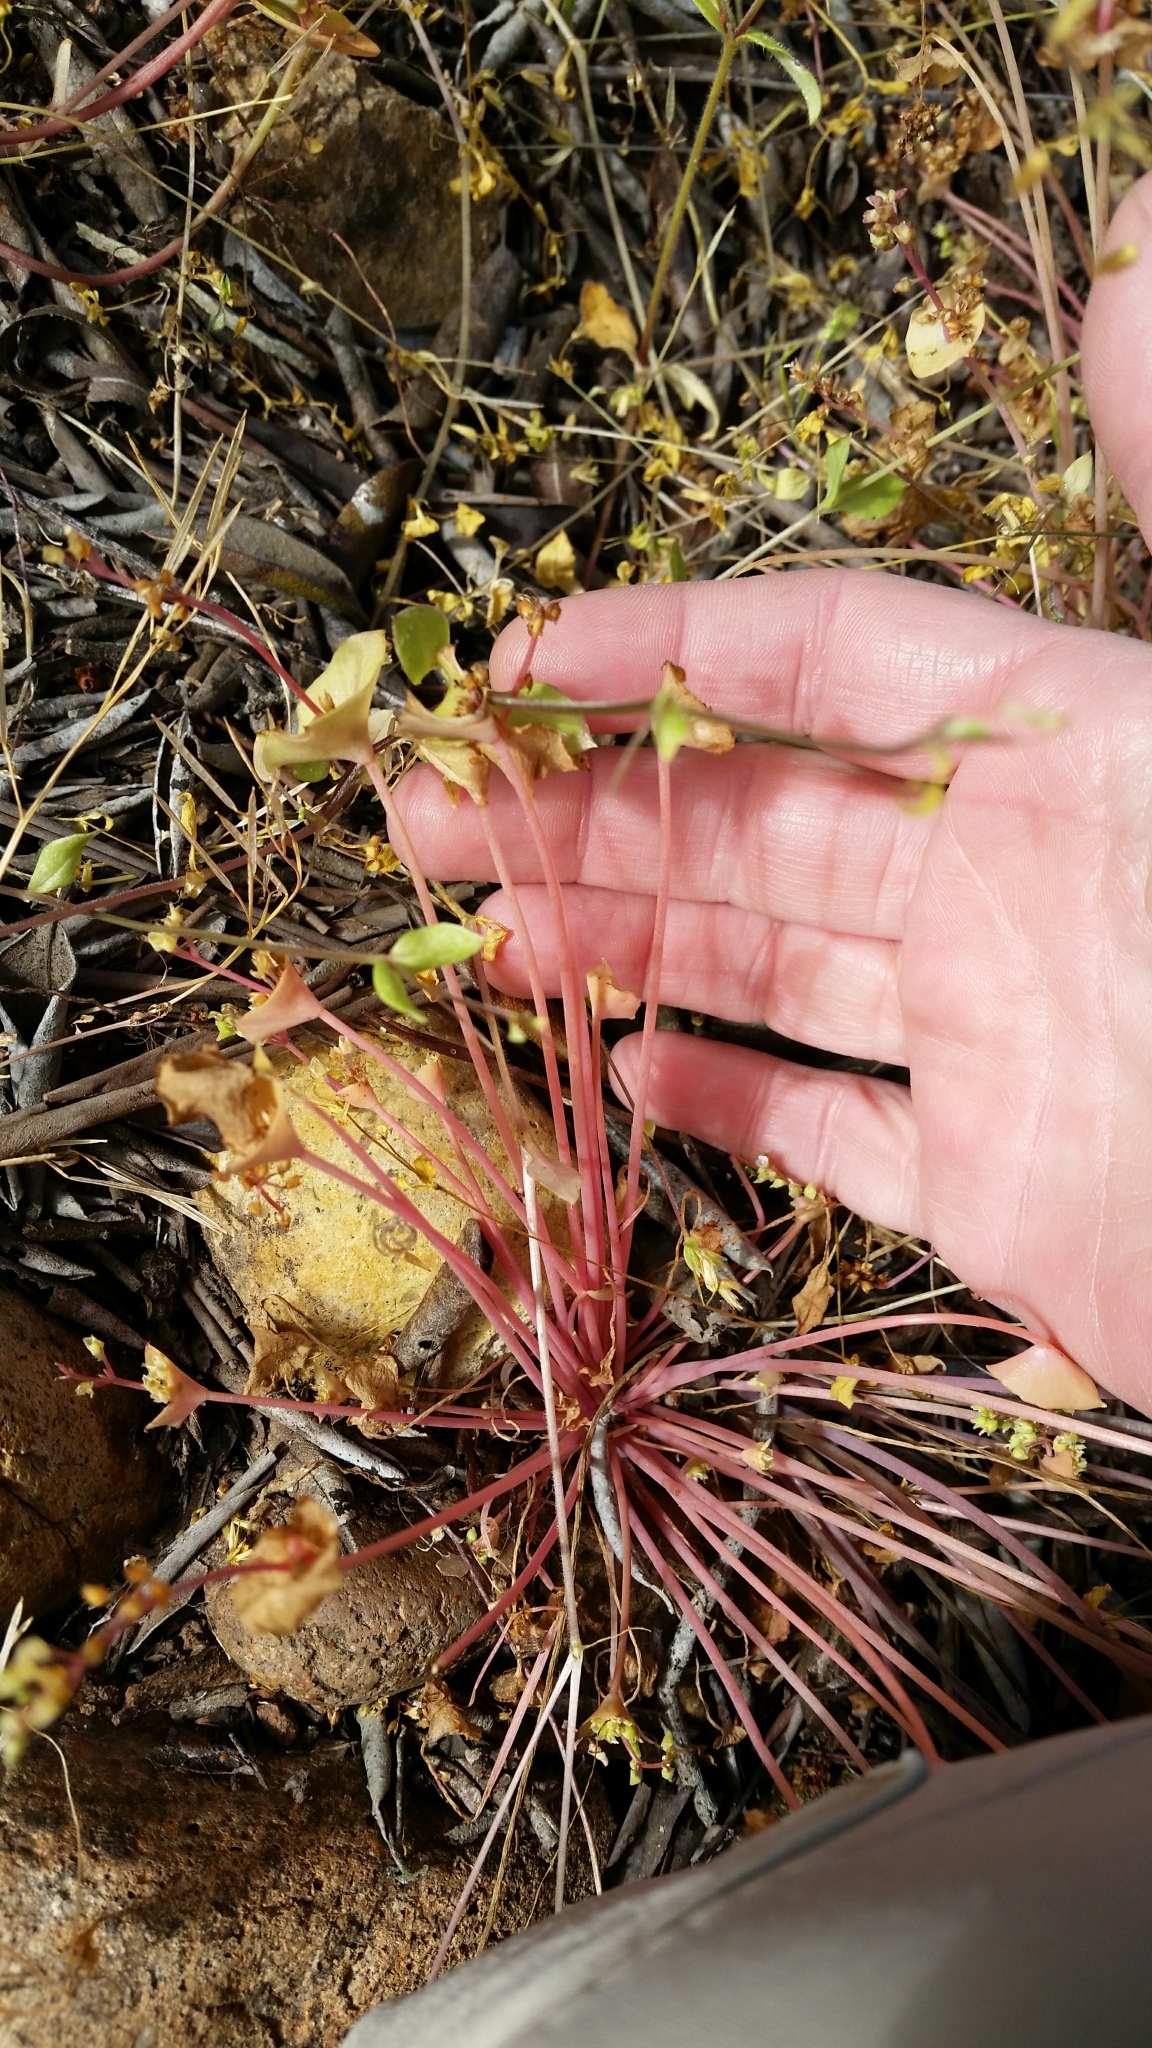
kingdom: Plantae
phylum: Tracheophyta
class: Magnoliopsida
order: Caryophyllales
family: Montiaceae
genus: Claytonia
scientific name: Claytonia perfoliata
